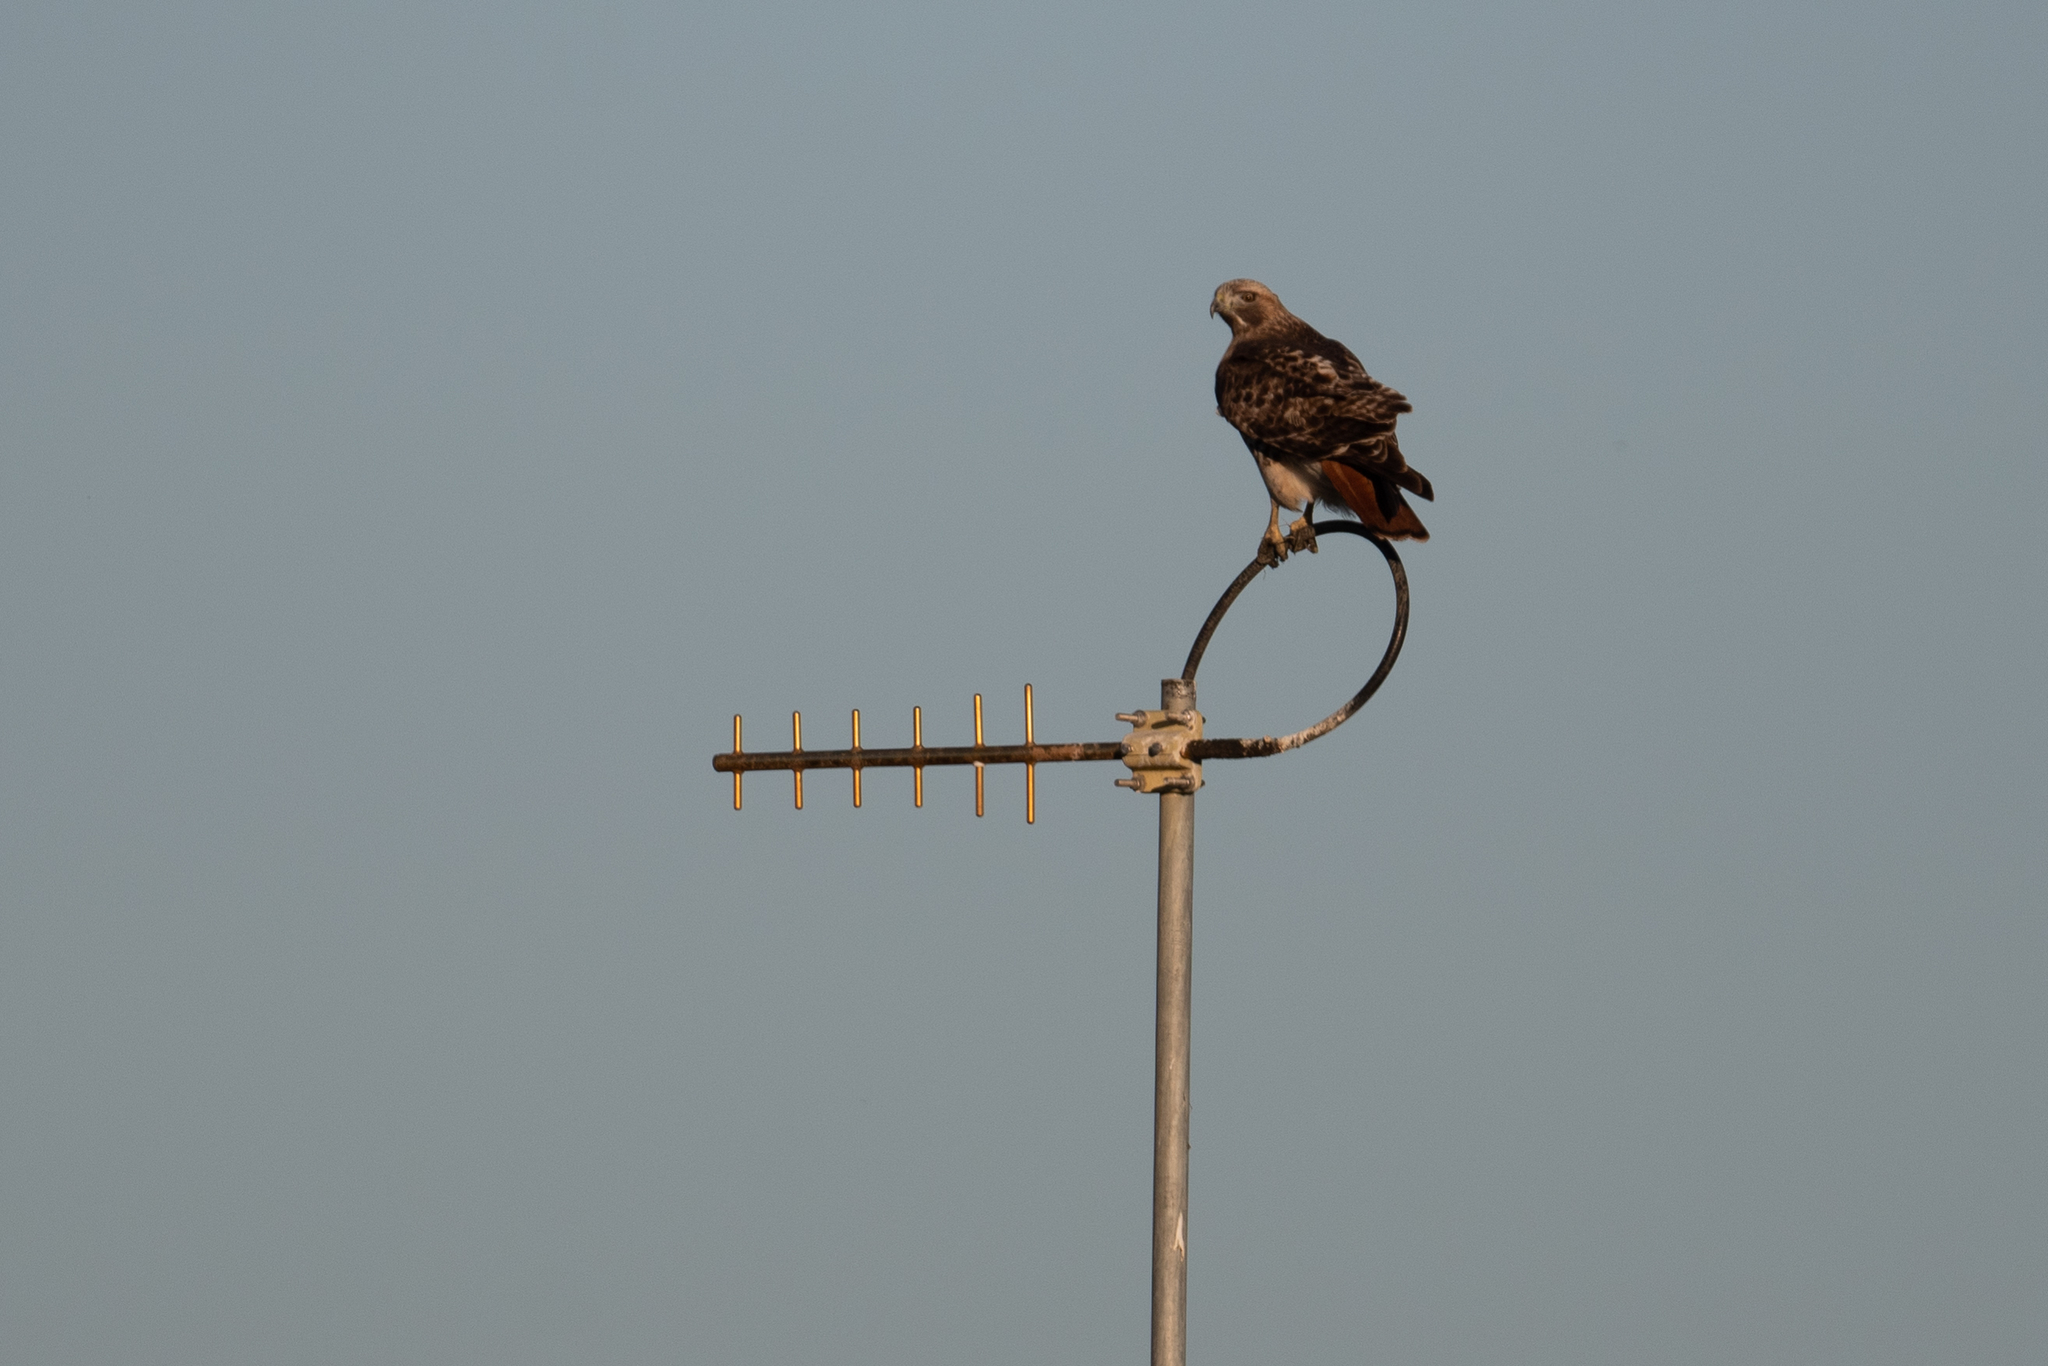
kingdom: Animalia
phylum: Chordata
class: Aves
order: Accipitriformes
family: Accipitridae
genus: Buteo
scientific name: Buteo jamaicensis
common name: Red-tailed hawk
